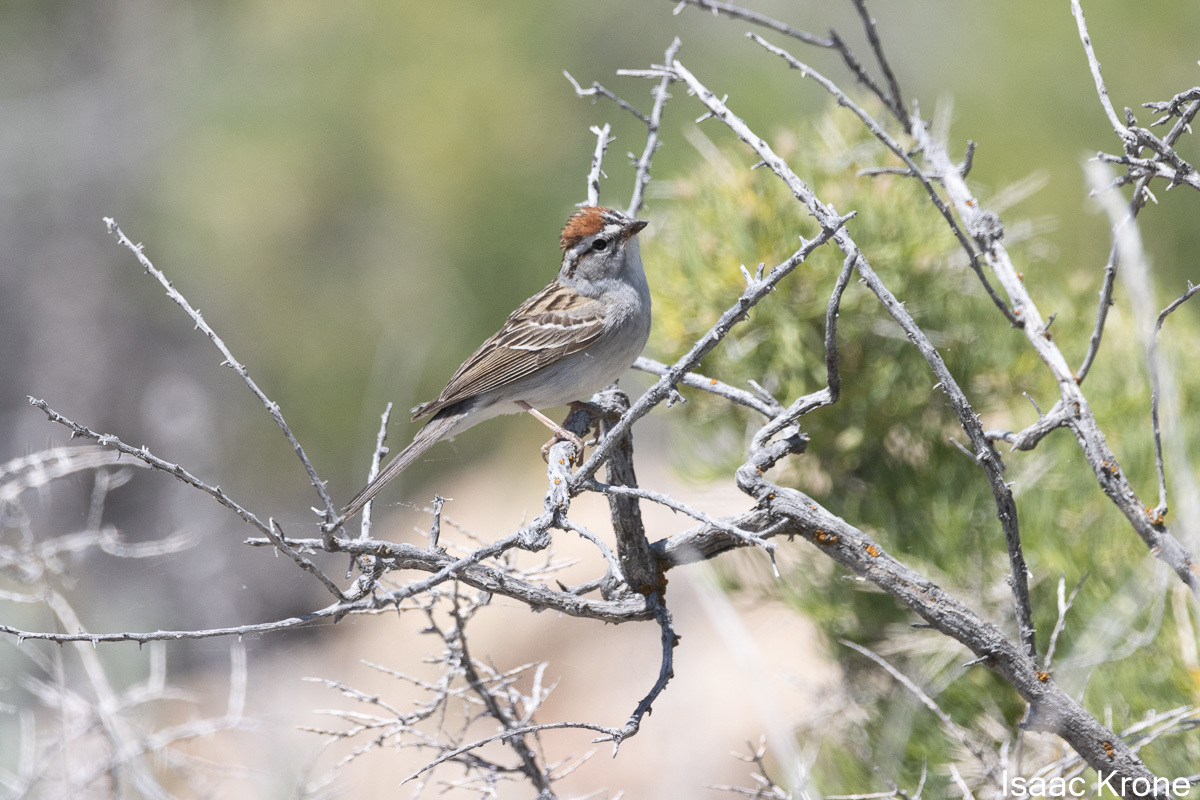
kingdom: Animalia
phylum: Chordata
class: Aves
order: Passeriformes
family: Passerellidae
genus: Spizella
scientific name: Spizella passerina
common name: Chipping sparrow
